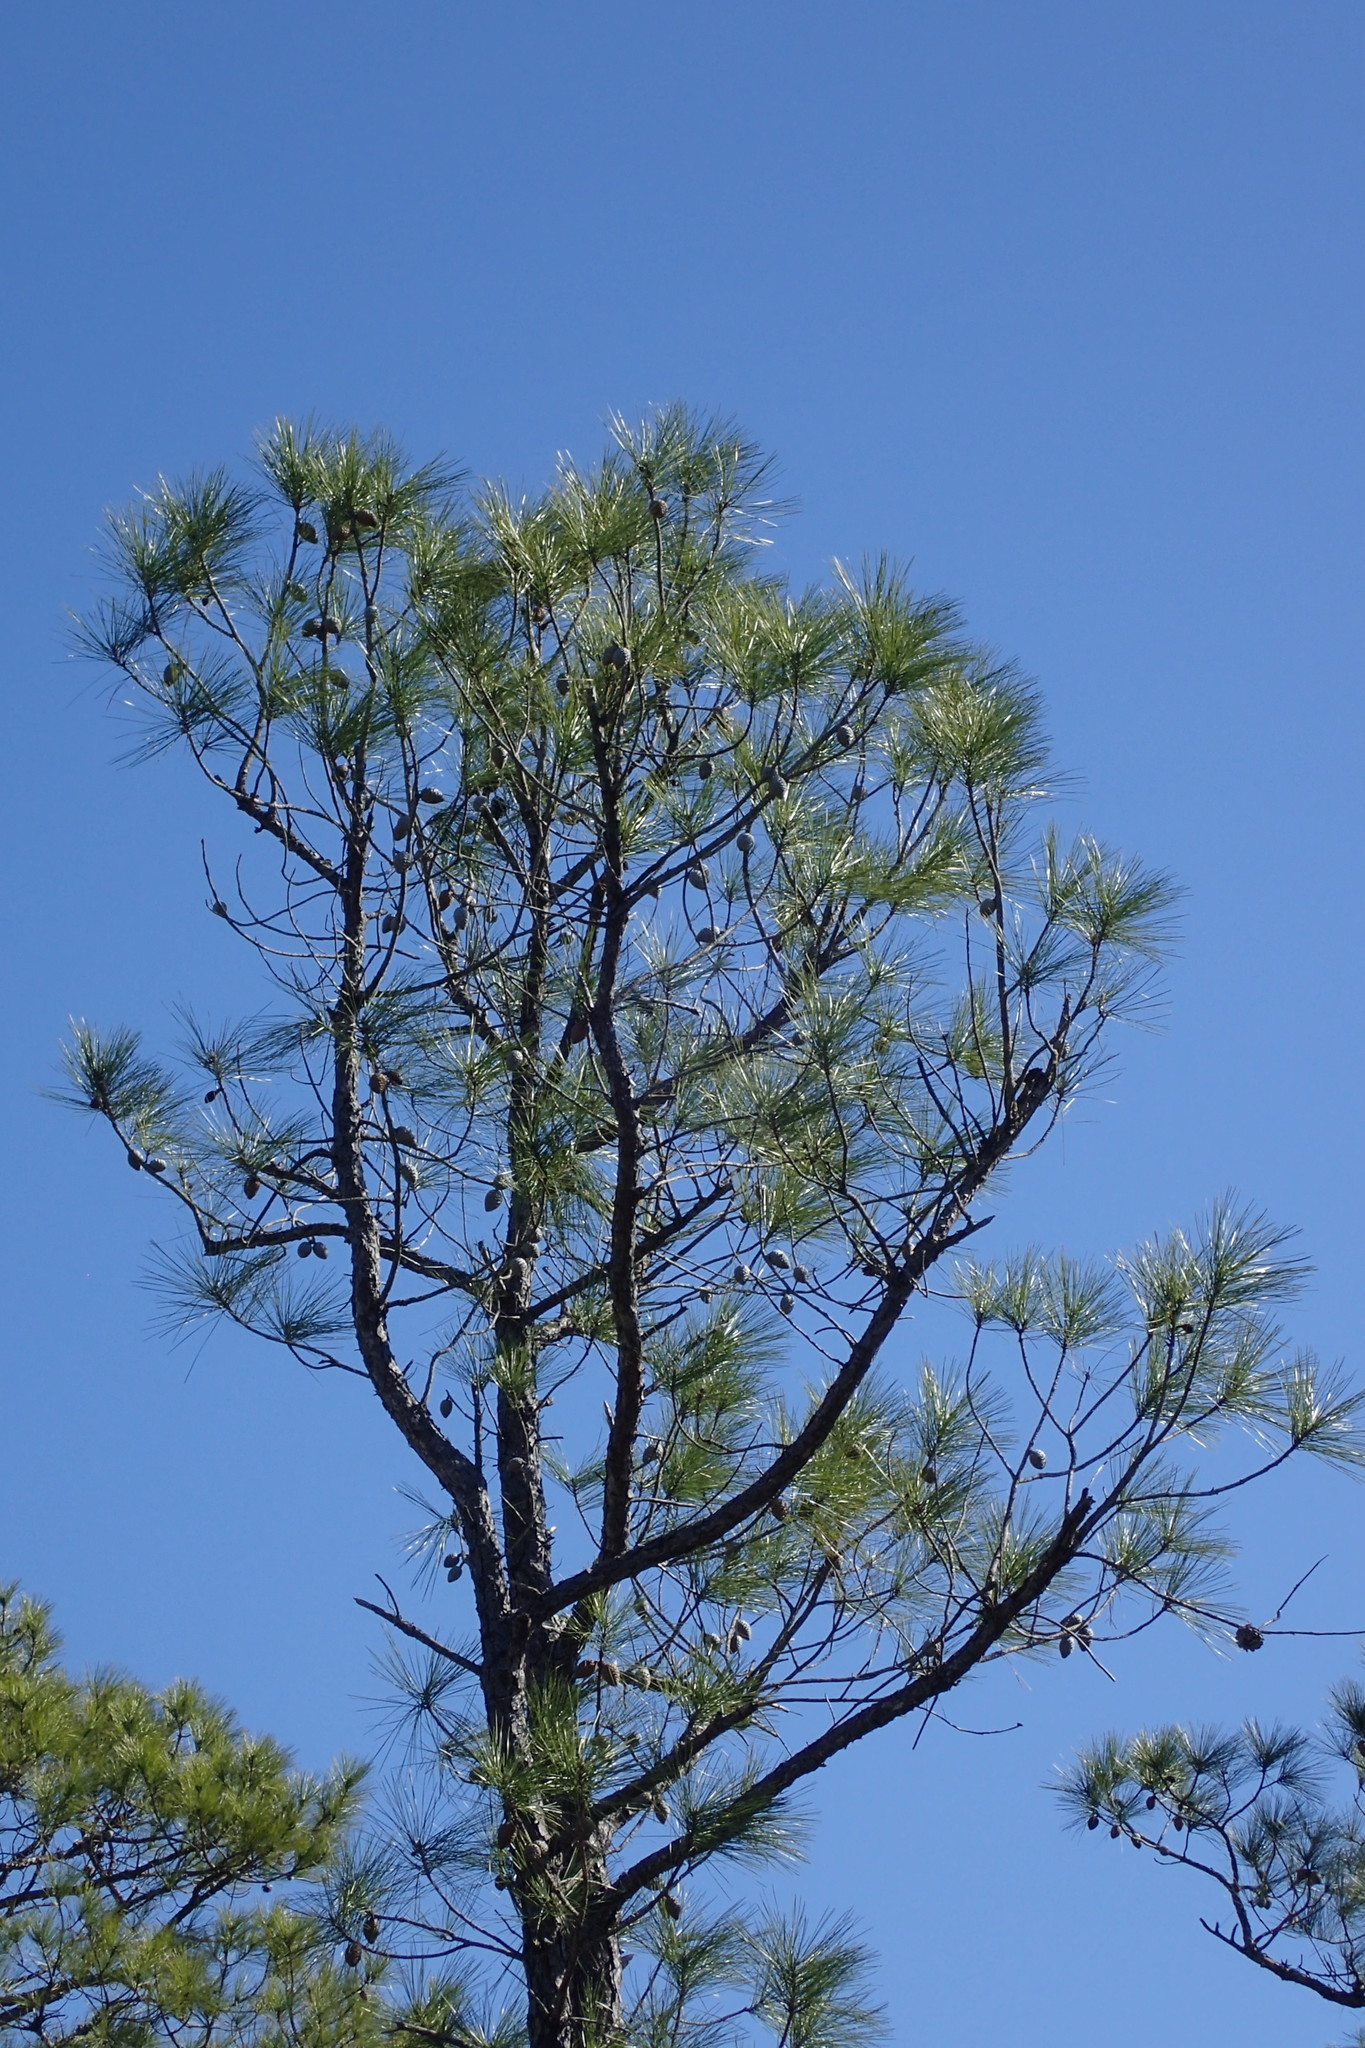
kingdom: Plantae
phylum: Tracheophyta
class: Pinopsida
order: Pinales
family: Pinaceae
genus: Pinus
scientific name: Pinus serotina
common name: Marsh pine
